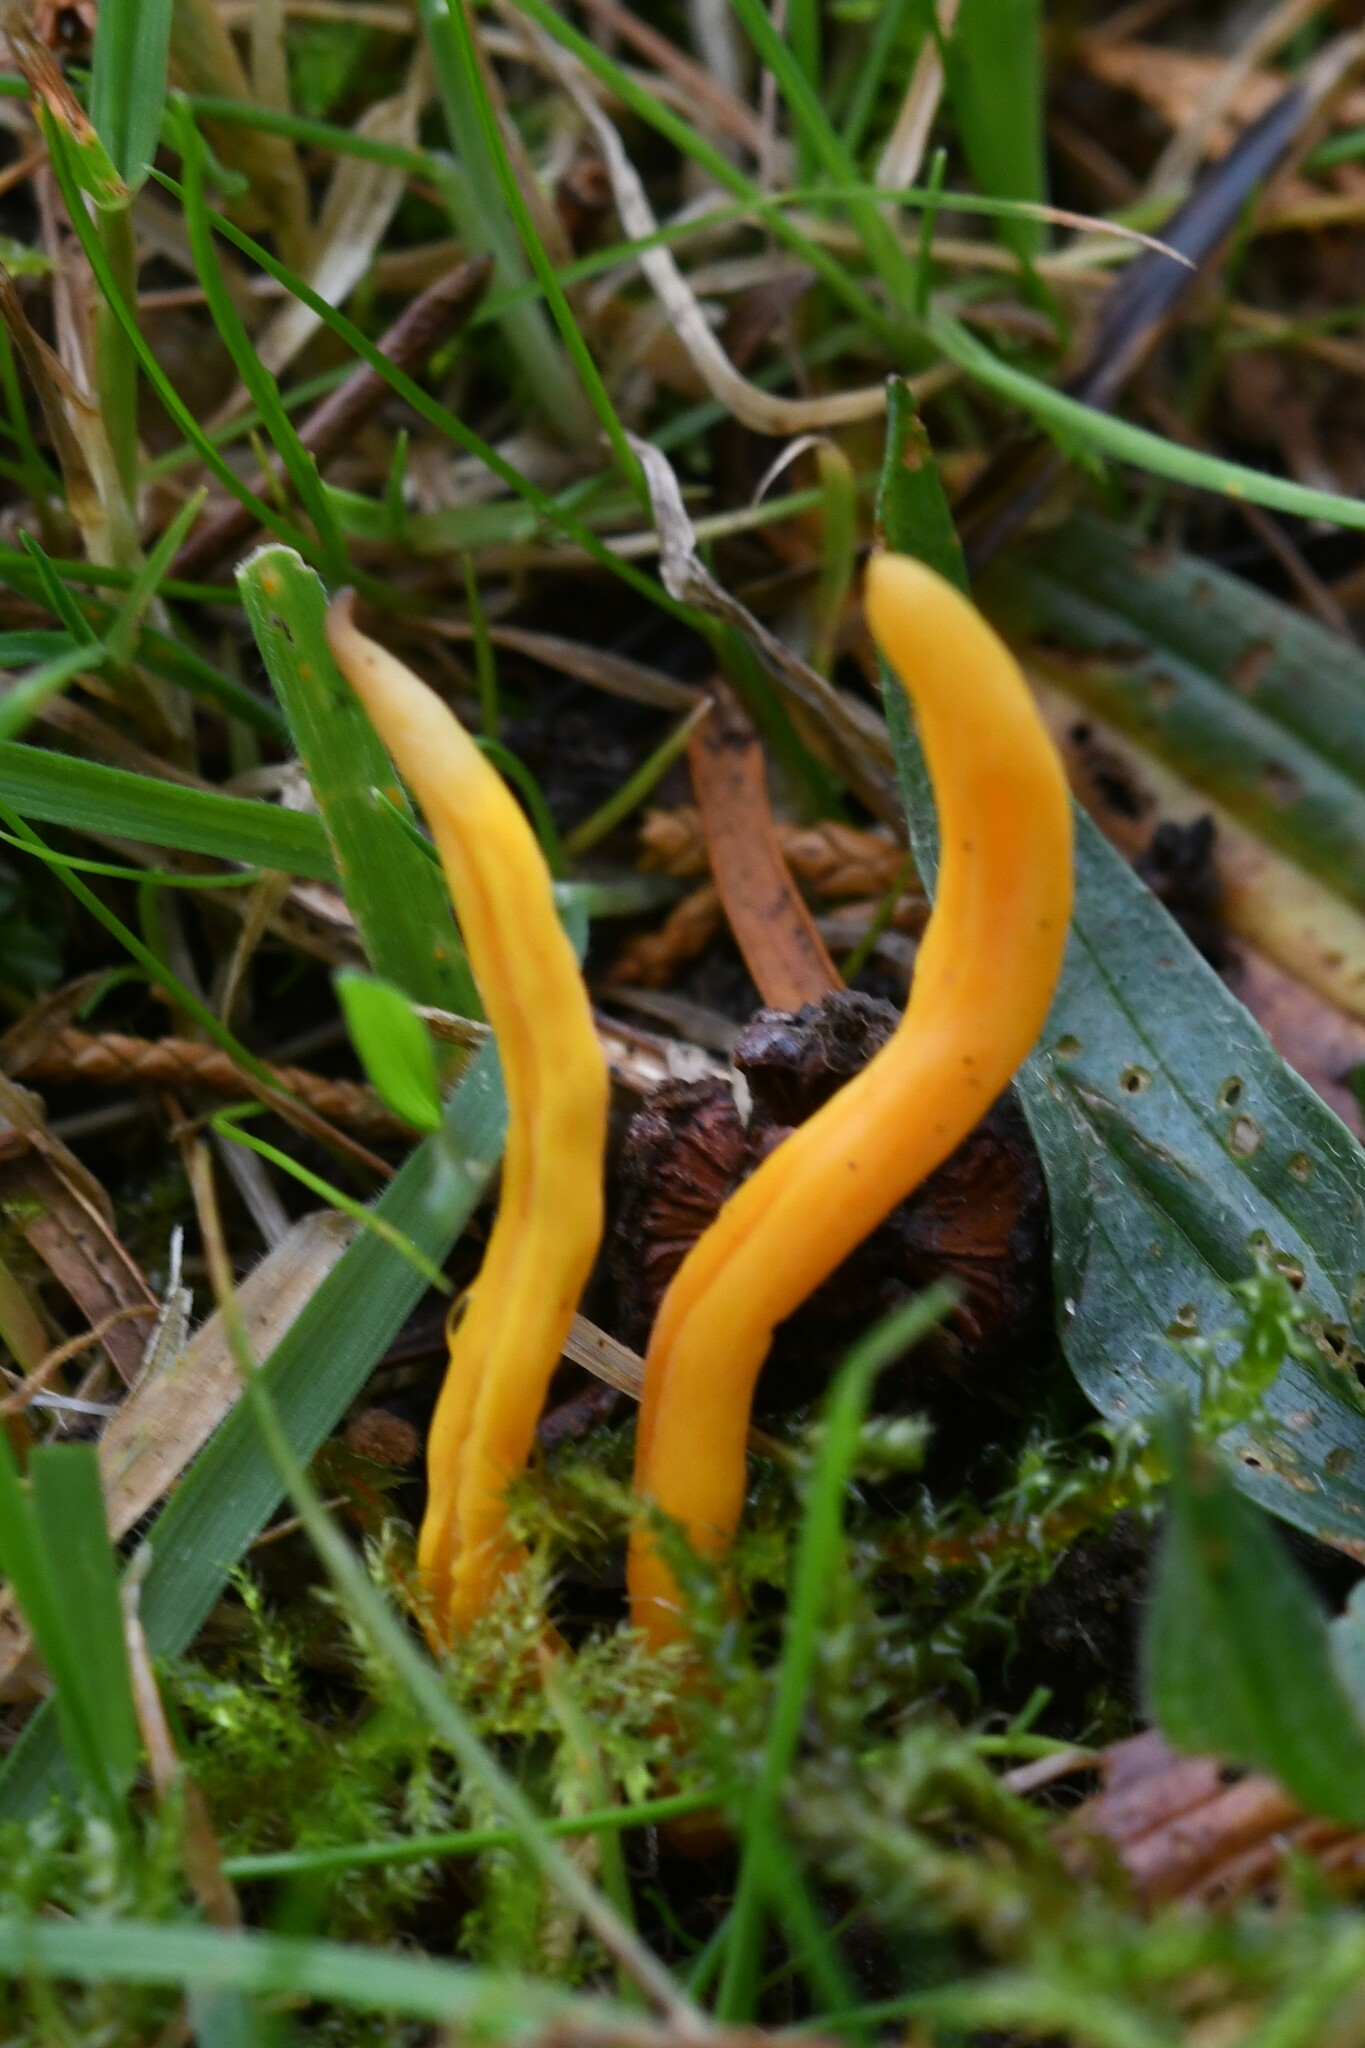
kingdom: Fungi
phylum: Basidiomycota
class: Agaricomycetes
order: Agaricales
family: Clavariaceae
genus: Clavulinopsis
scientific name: Clavulinopsis helvola
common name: Yellow club
